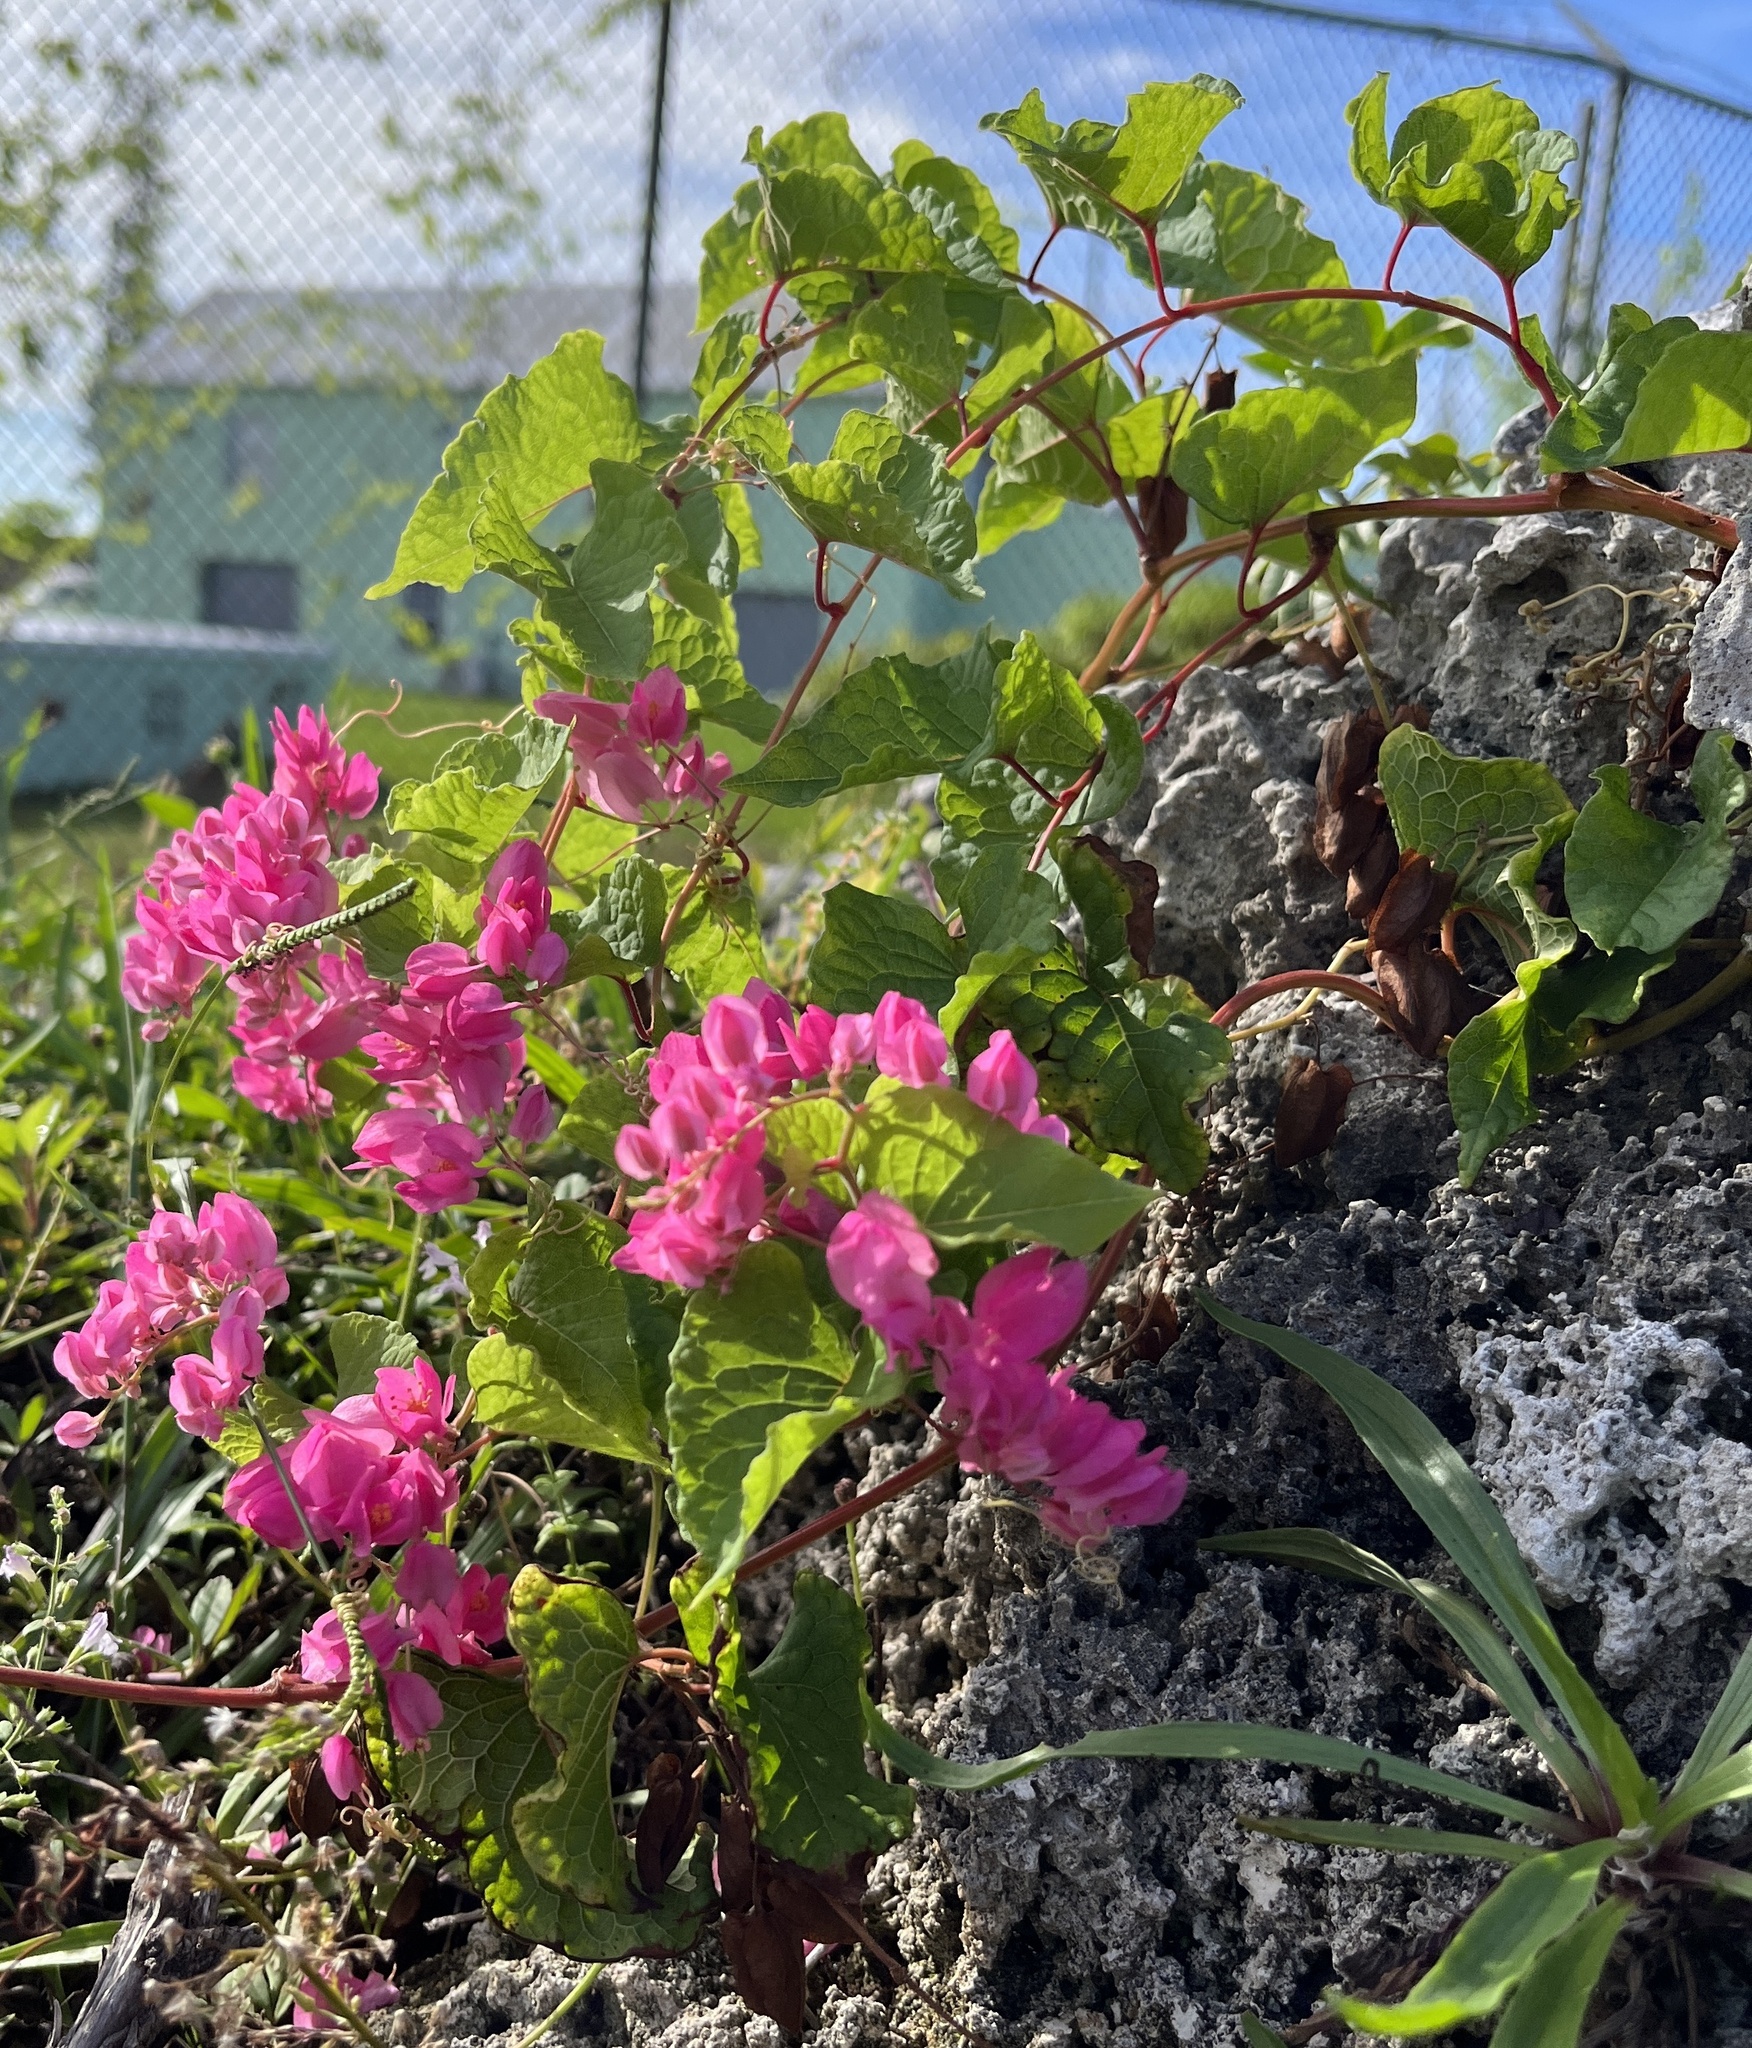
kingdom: Plantae
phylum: Tracheophyta
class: Magnoliopsida
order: Caryophyllales
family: Polygonaceae
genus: Antigonon
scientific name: Antigonon leptopus
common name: Coral vine
